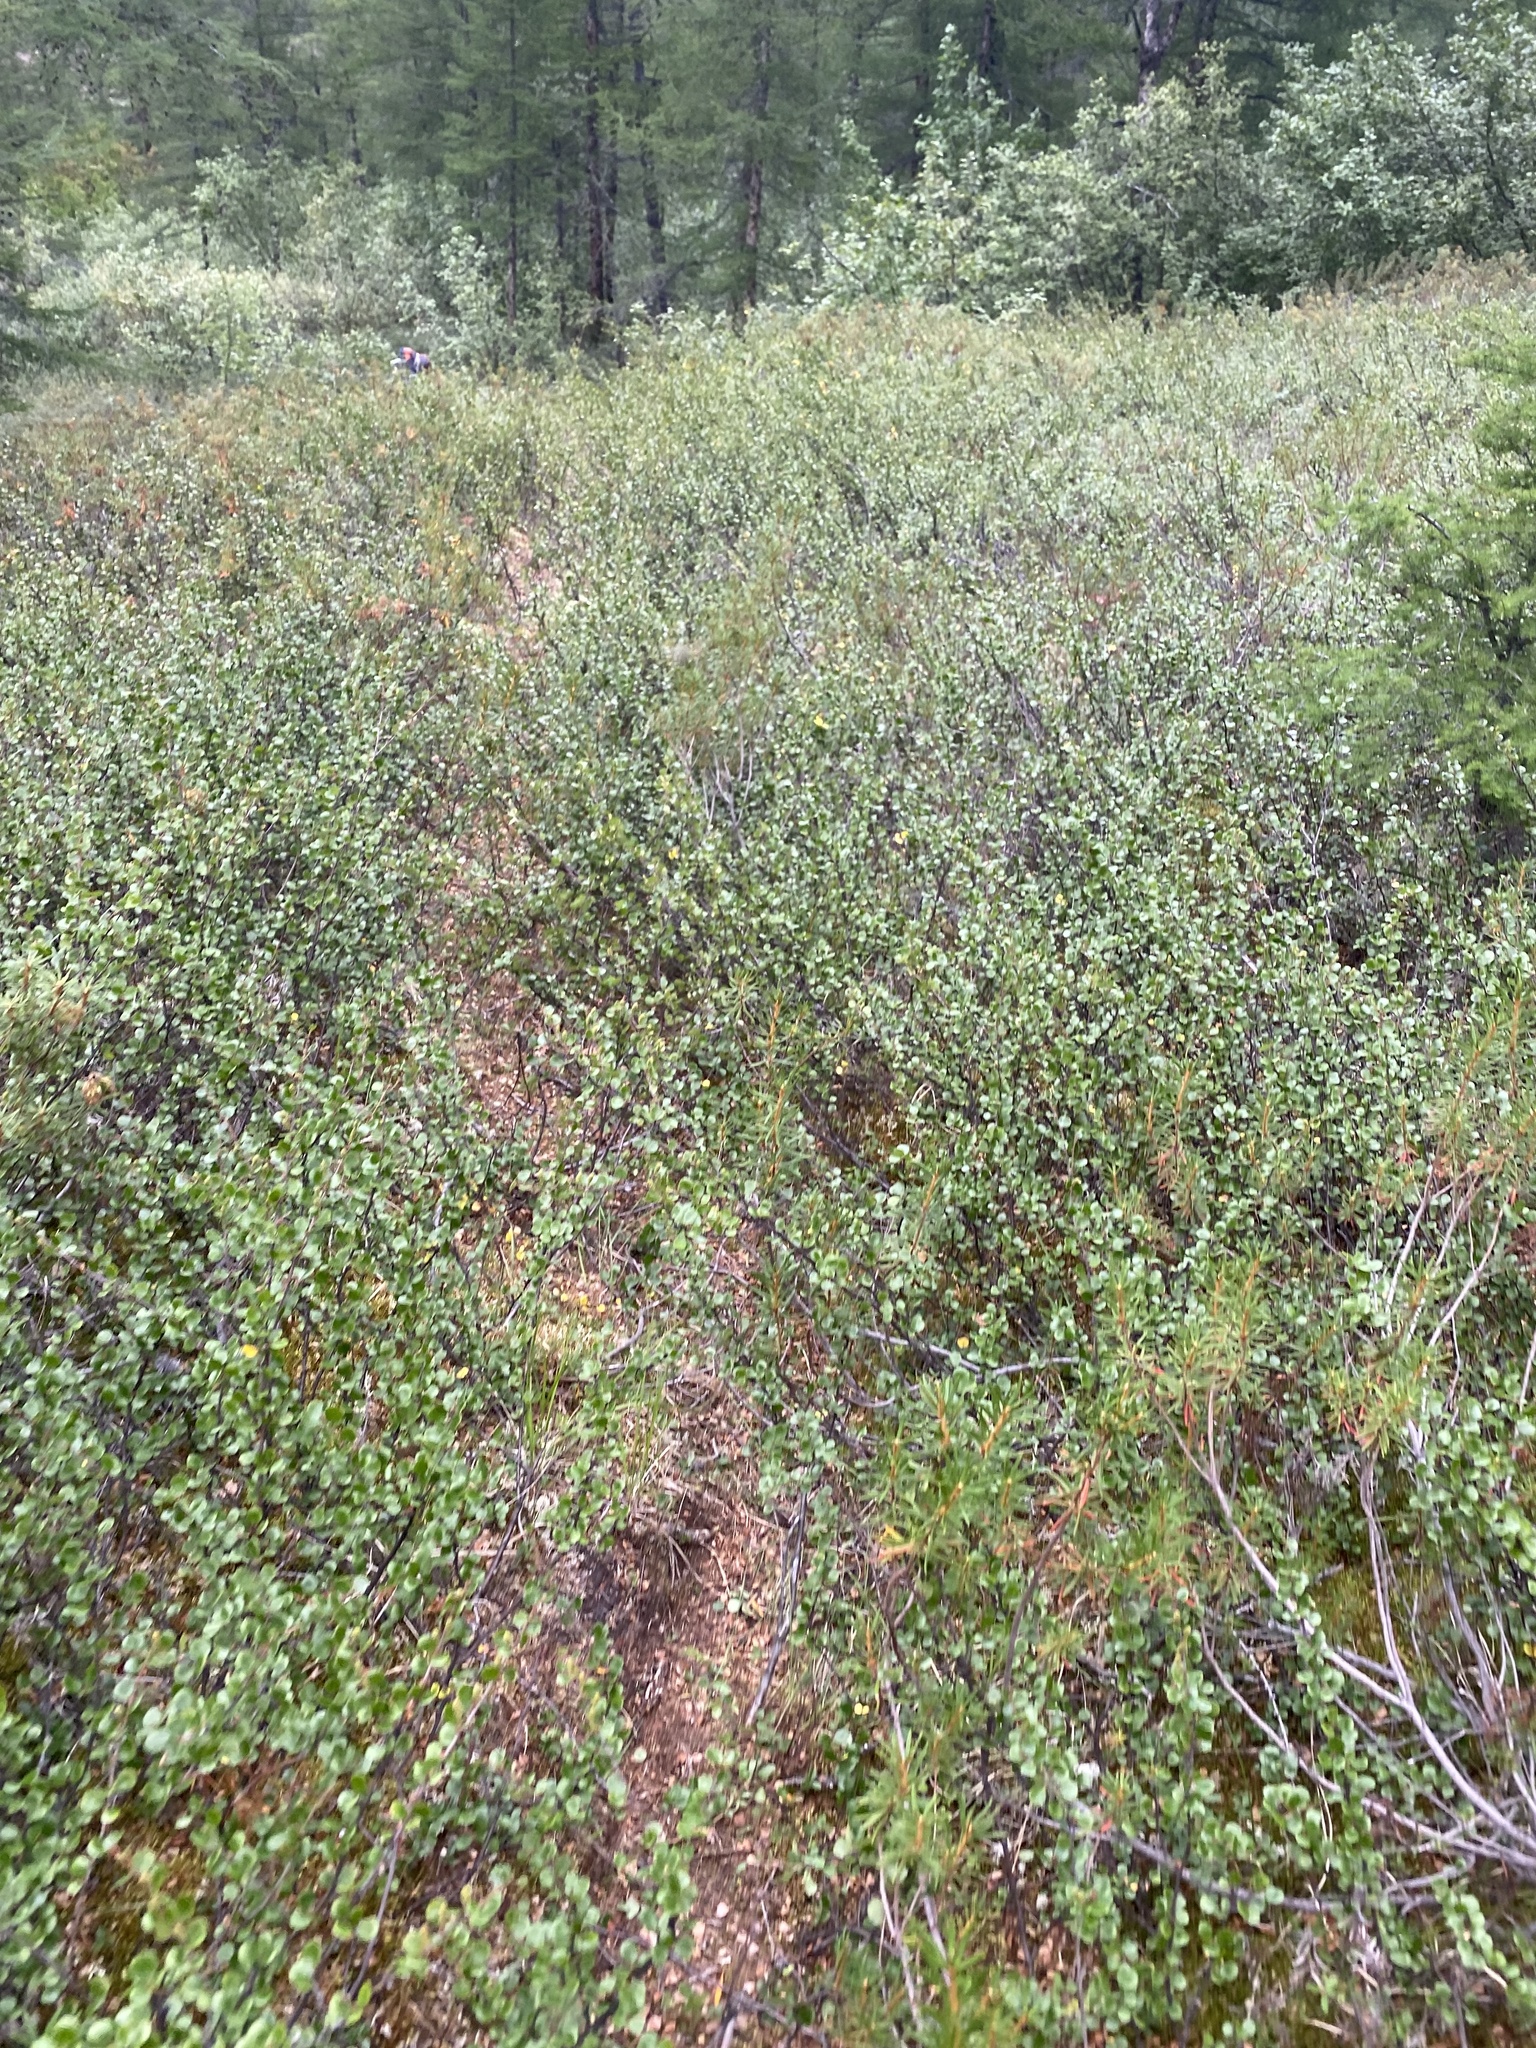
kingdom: Plantae
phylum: Tracheophyta
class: Magnoliopsida
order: Fagales
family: Betulaceae
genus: Betula
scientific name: Betula nana
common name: Arctic dwarf birch
